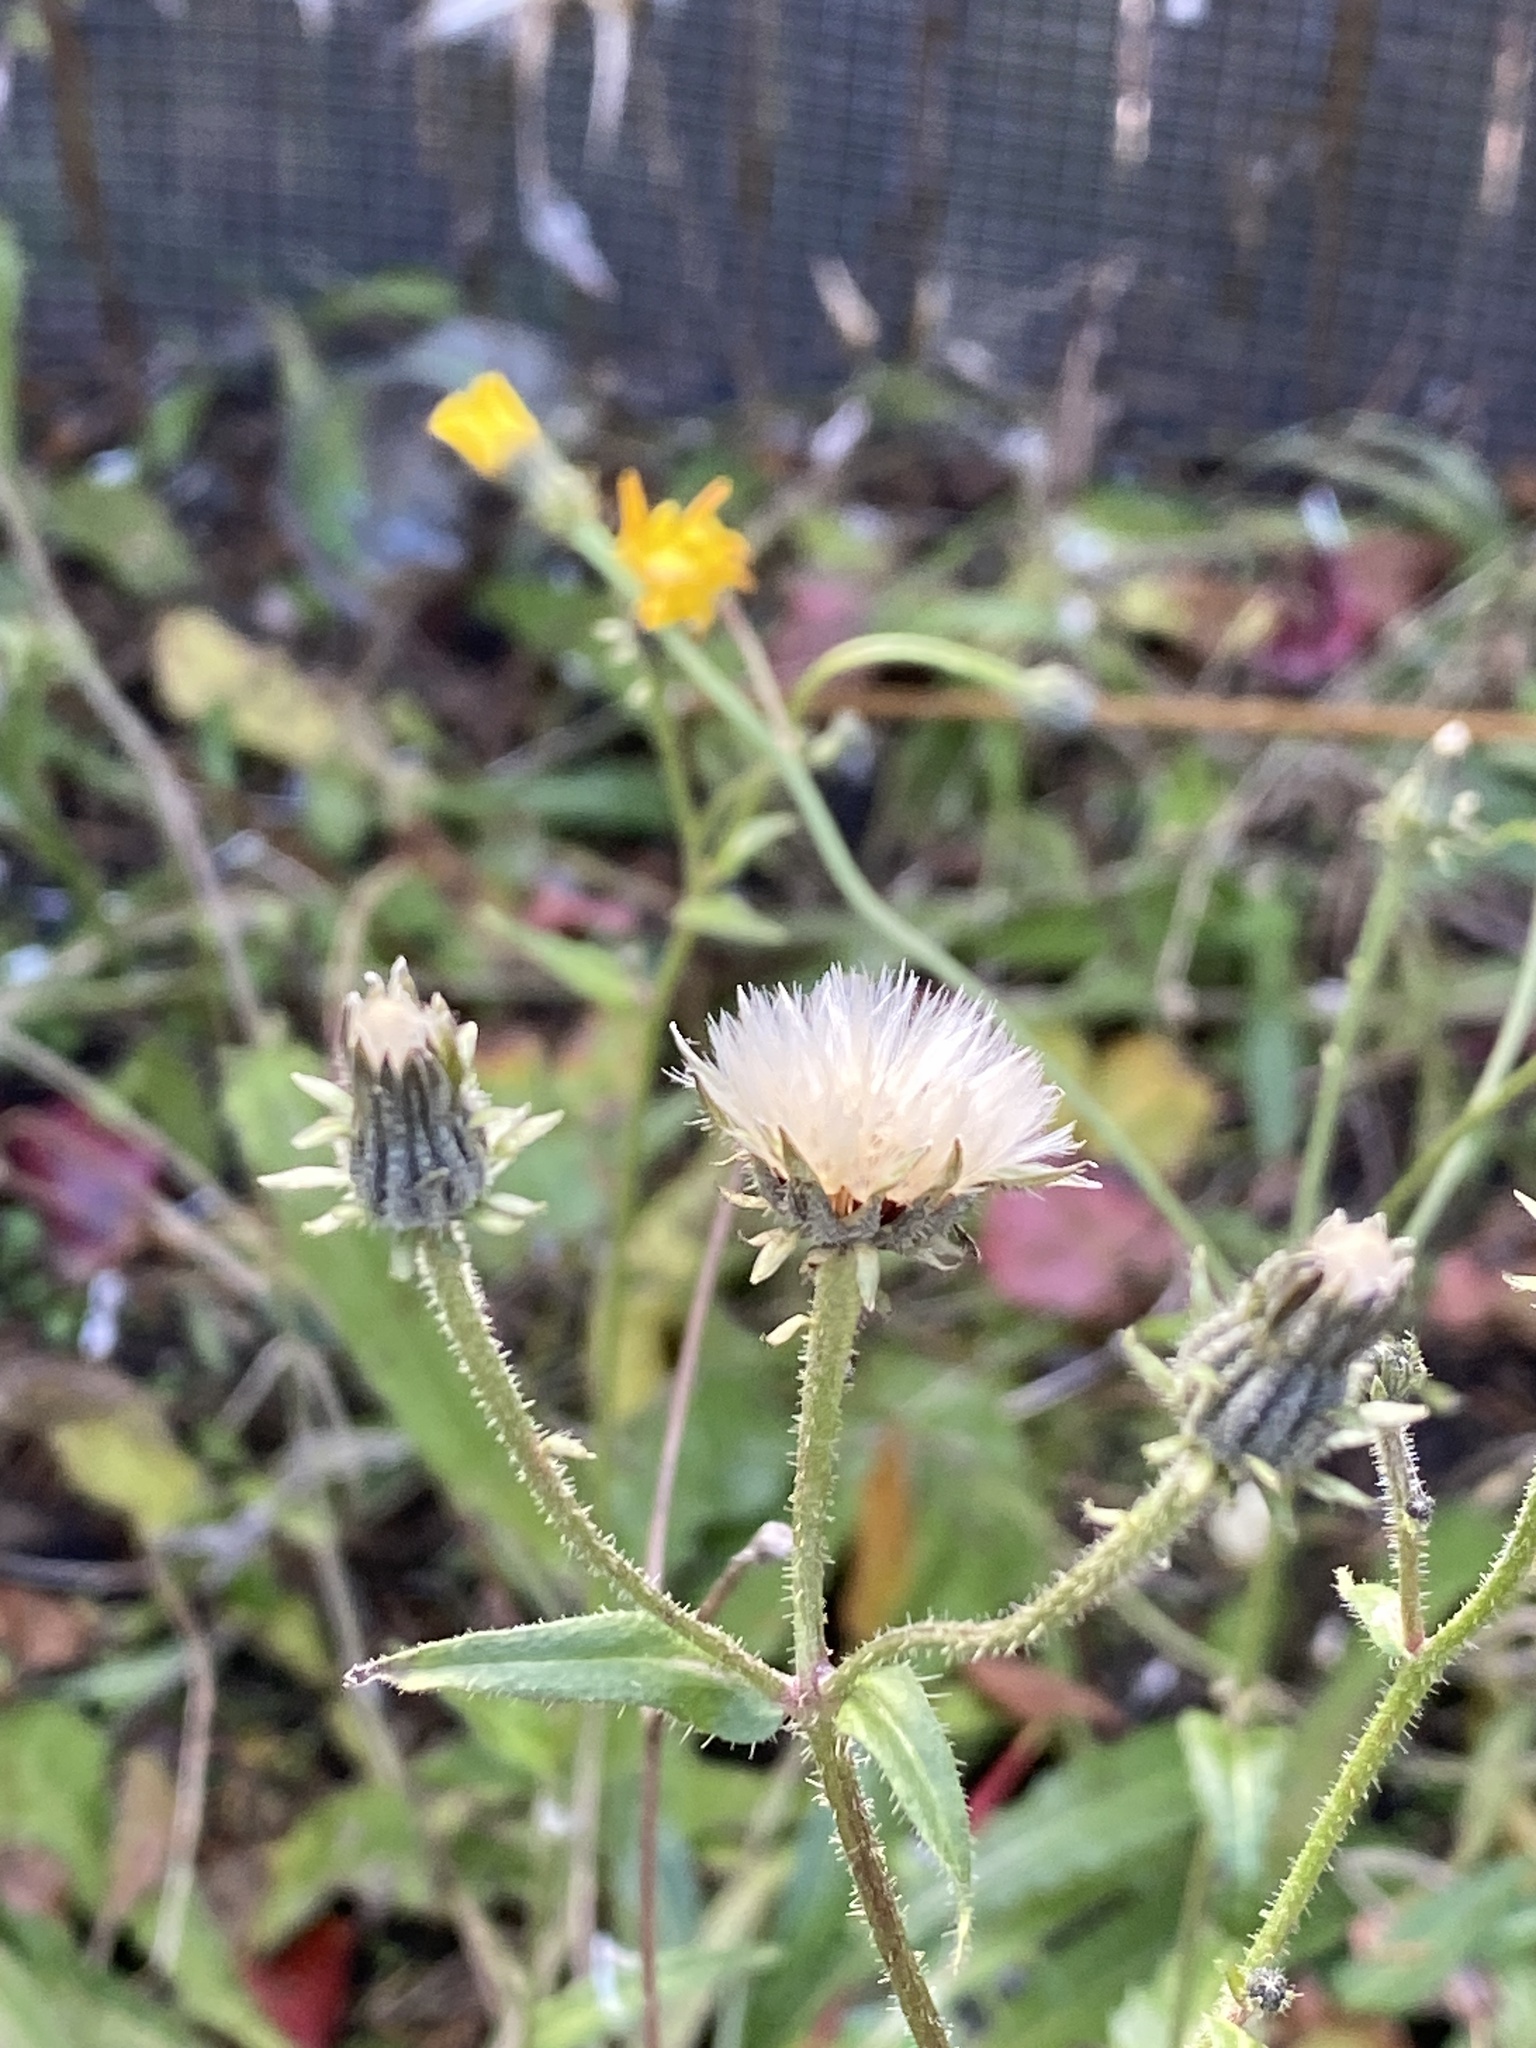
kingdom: Plantae
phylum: Tracheophyta
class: Magnoliopsida
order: Asterales
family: Asteraceae
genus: Picris
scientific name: Picris hieracioides
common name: Hawkweed oxtongue
